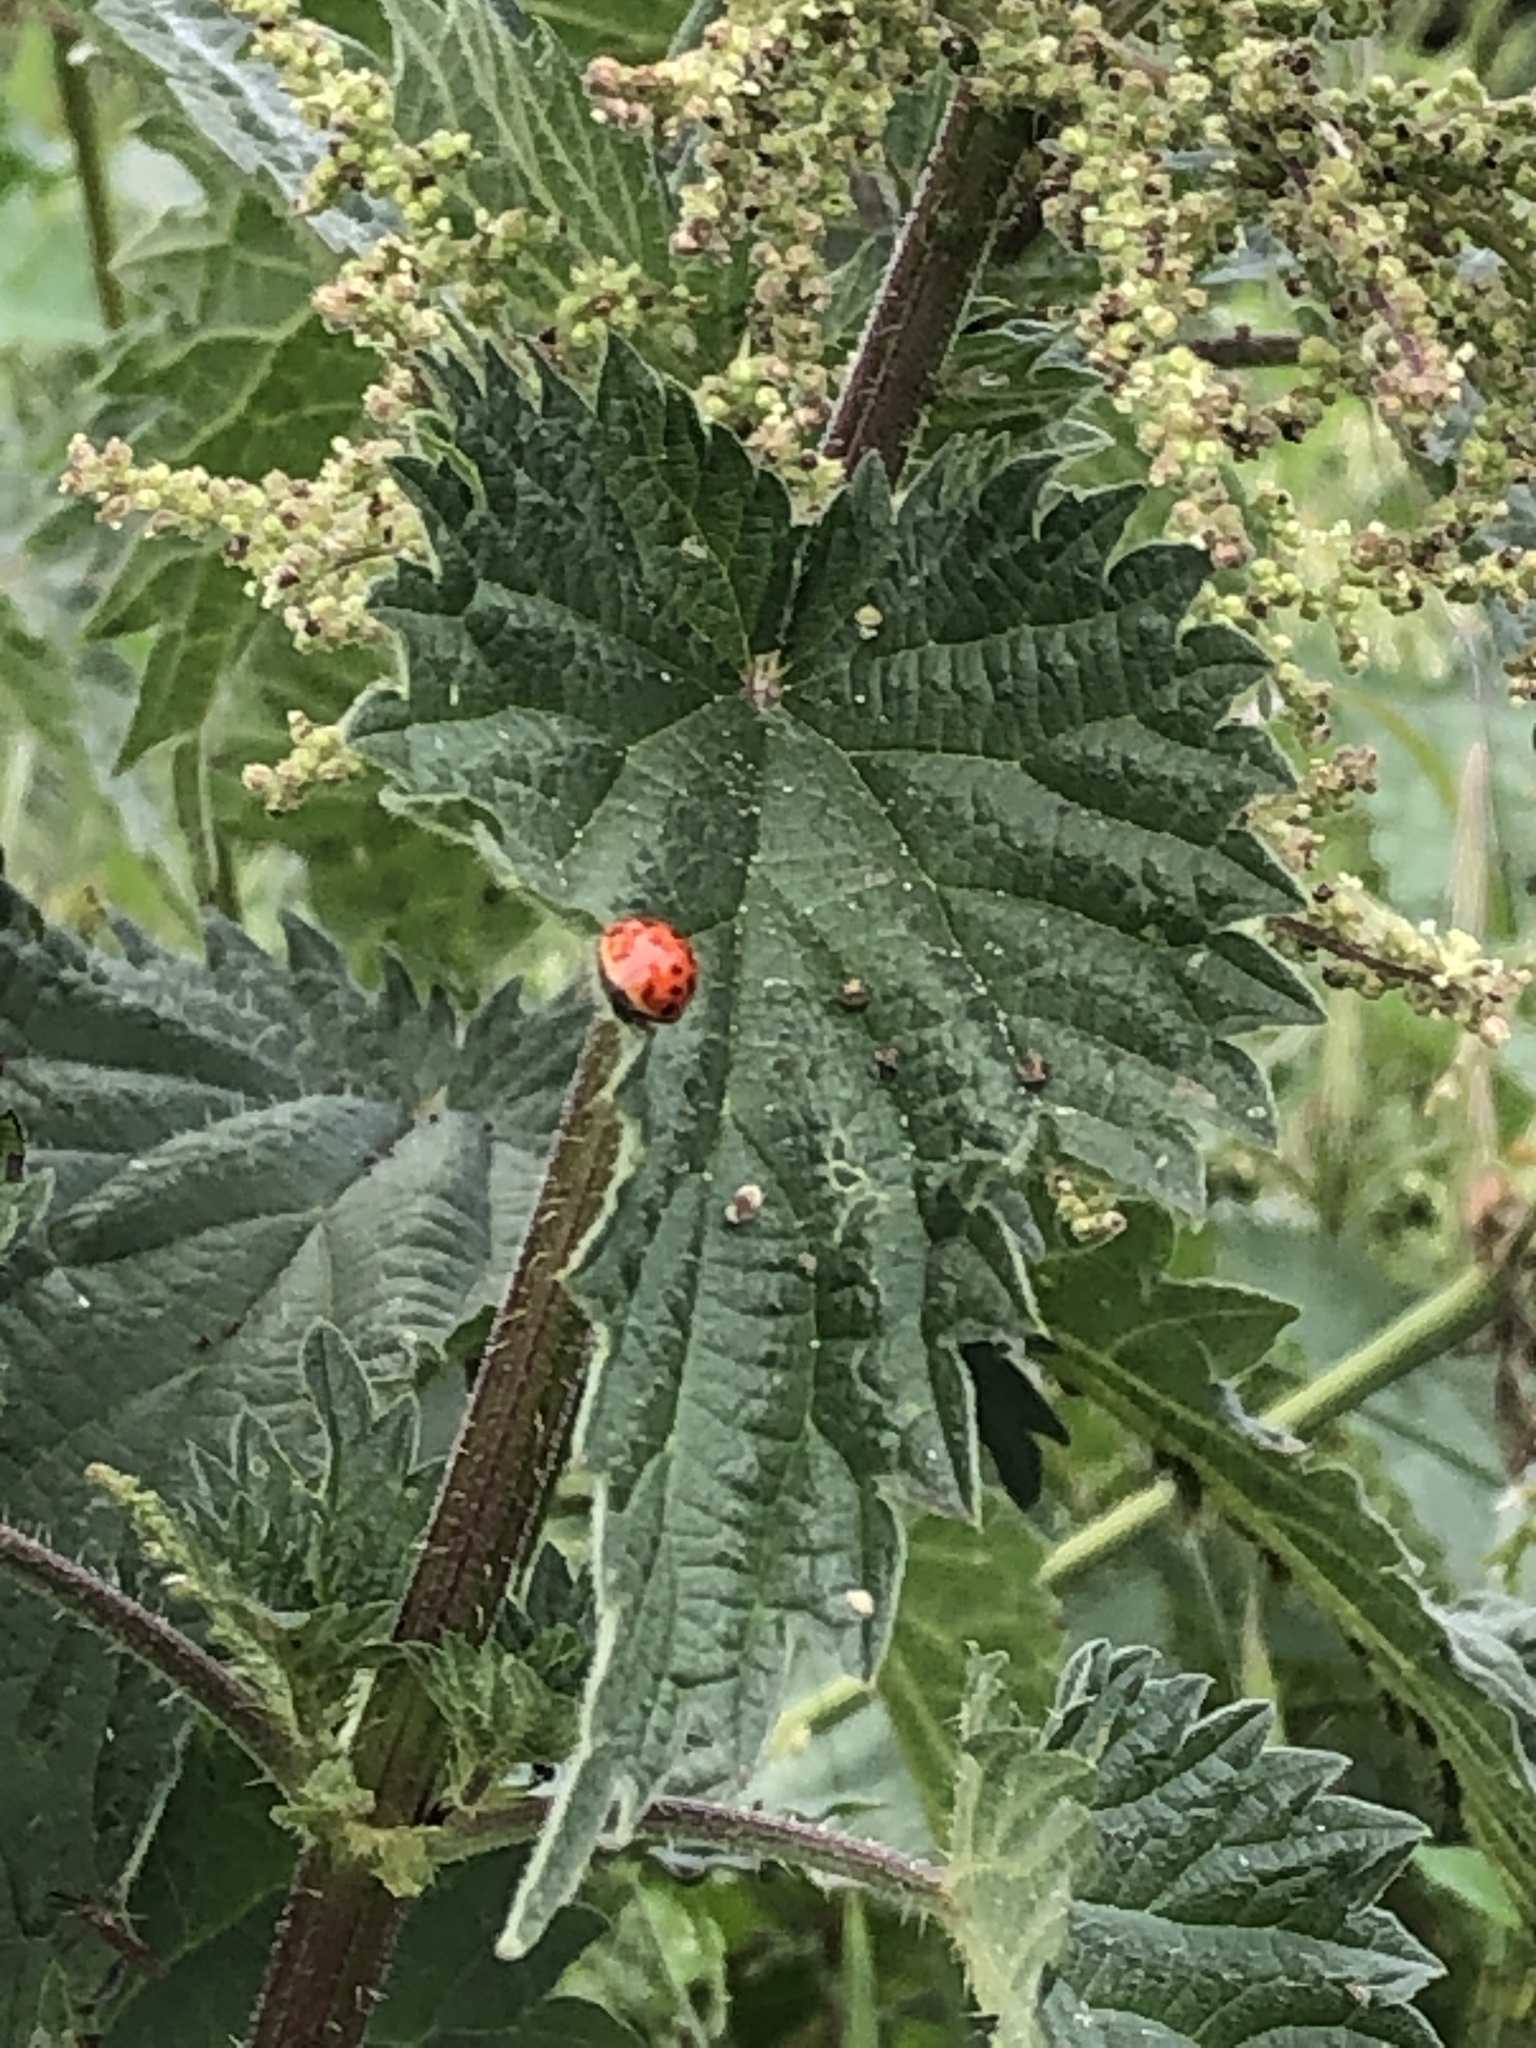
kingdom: Animalia
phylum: Arthropoda
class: Insecta
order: Coleoptera
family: Coccinellidae
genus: Harmonia
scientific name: Harmonia axyridis
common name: Harlequin ladybird
